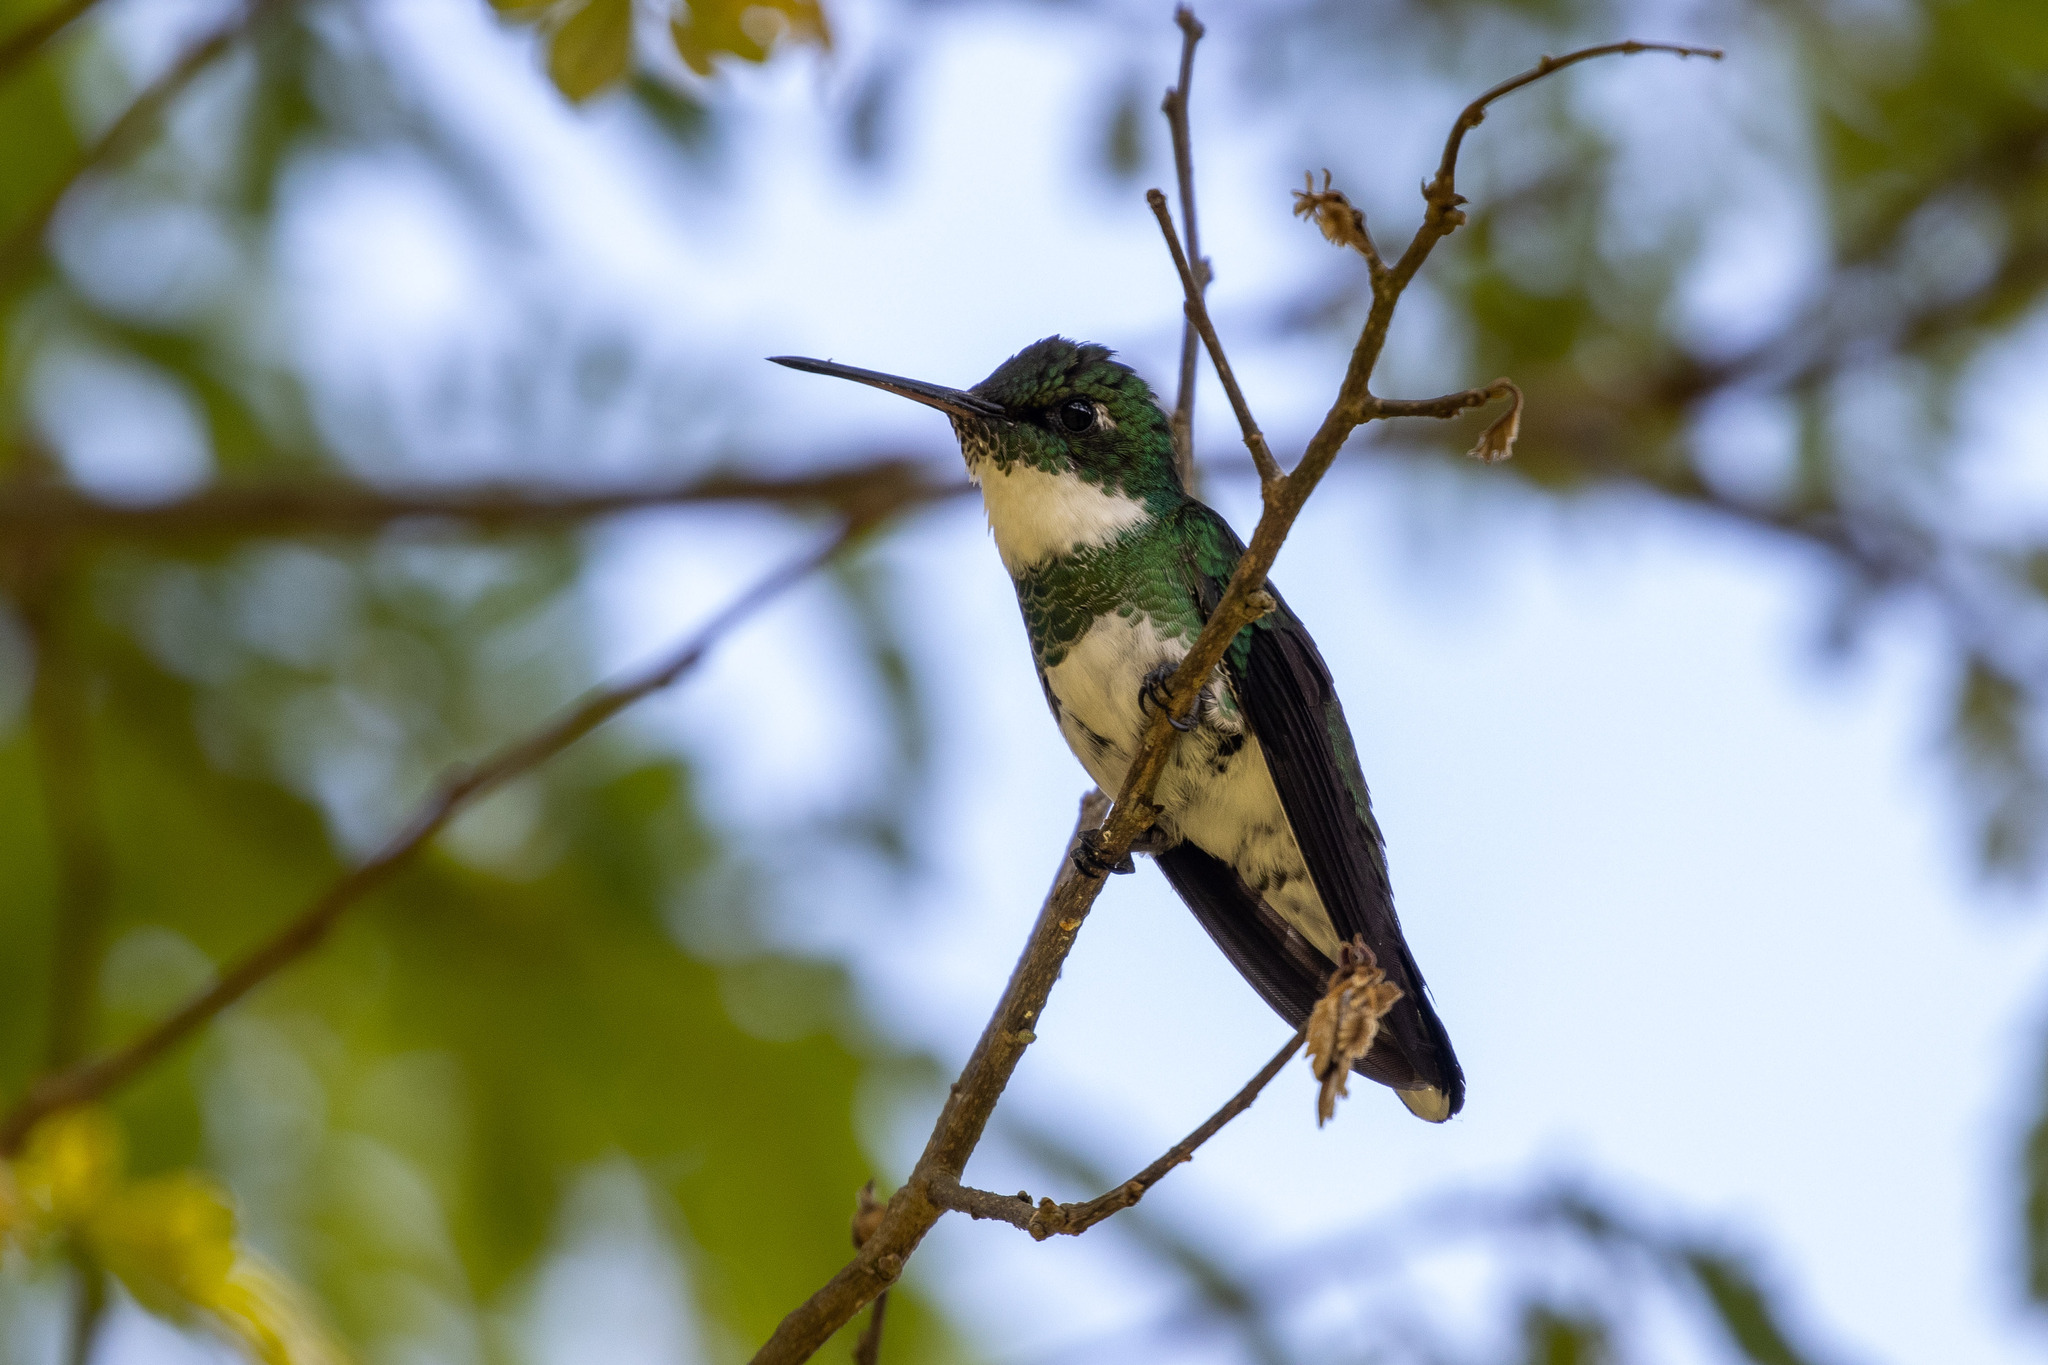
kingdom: Animalia
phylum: Chordata
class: Aves
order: Apodiformes
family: Trochilidae
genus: Leucochloris
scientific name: Leucochloris albicollis
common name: White-throated hummingbird
